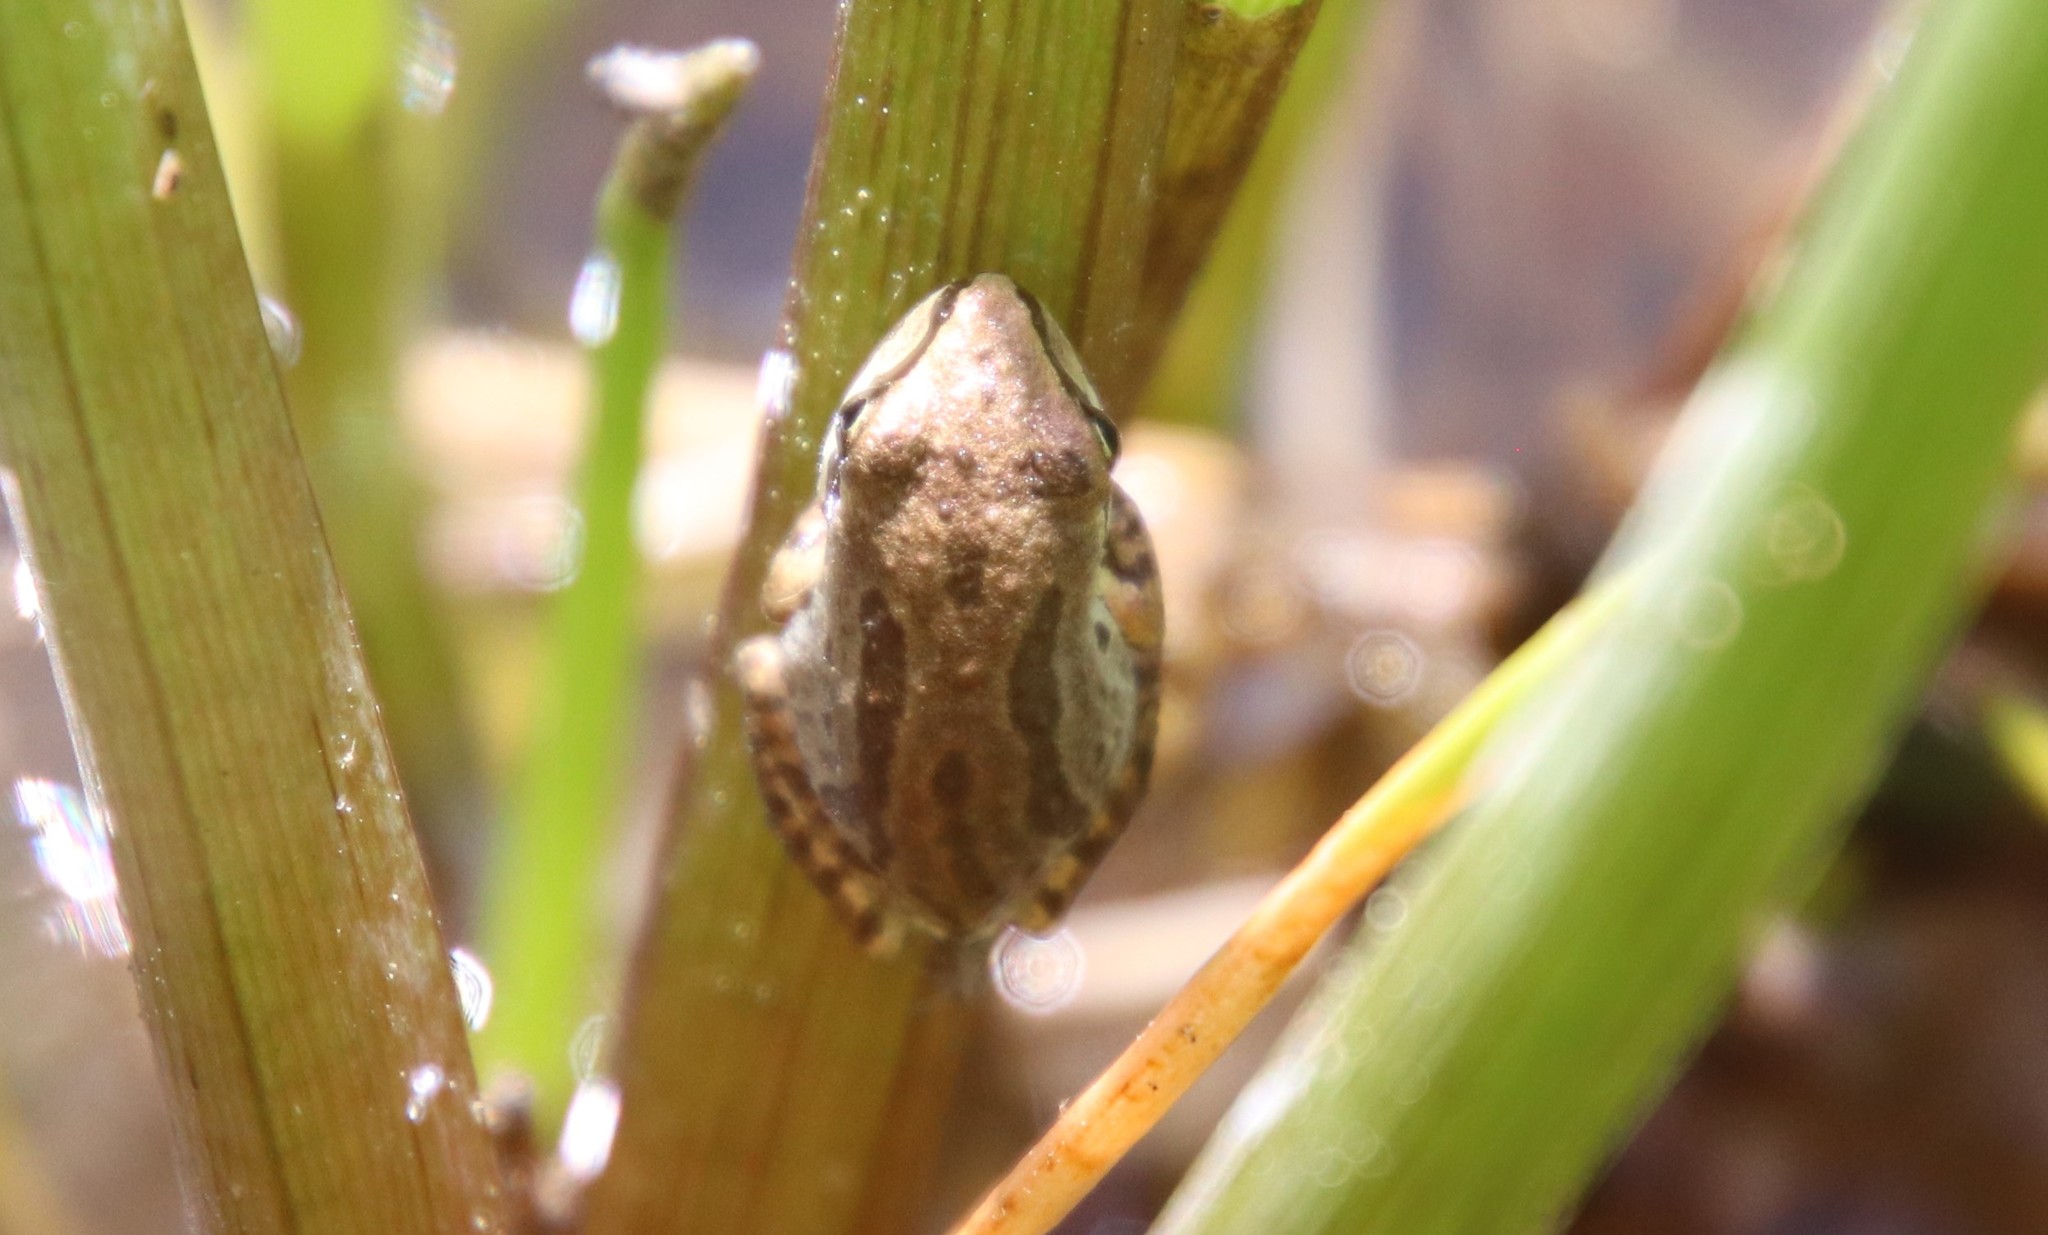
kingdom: Animalia
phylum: Chordata
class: Amphibia
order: Anura
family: Hylidae
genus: Pseudacris
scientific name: Pseudacris regilla
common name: Pacific chorus frog
